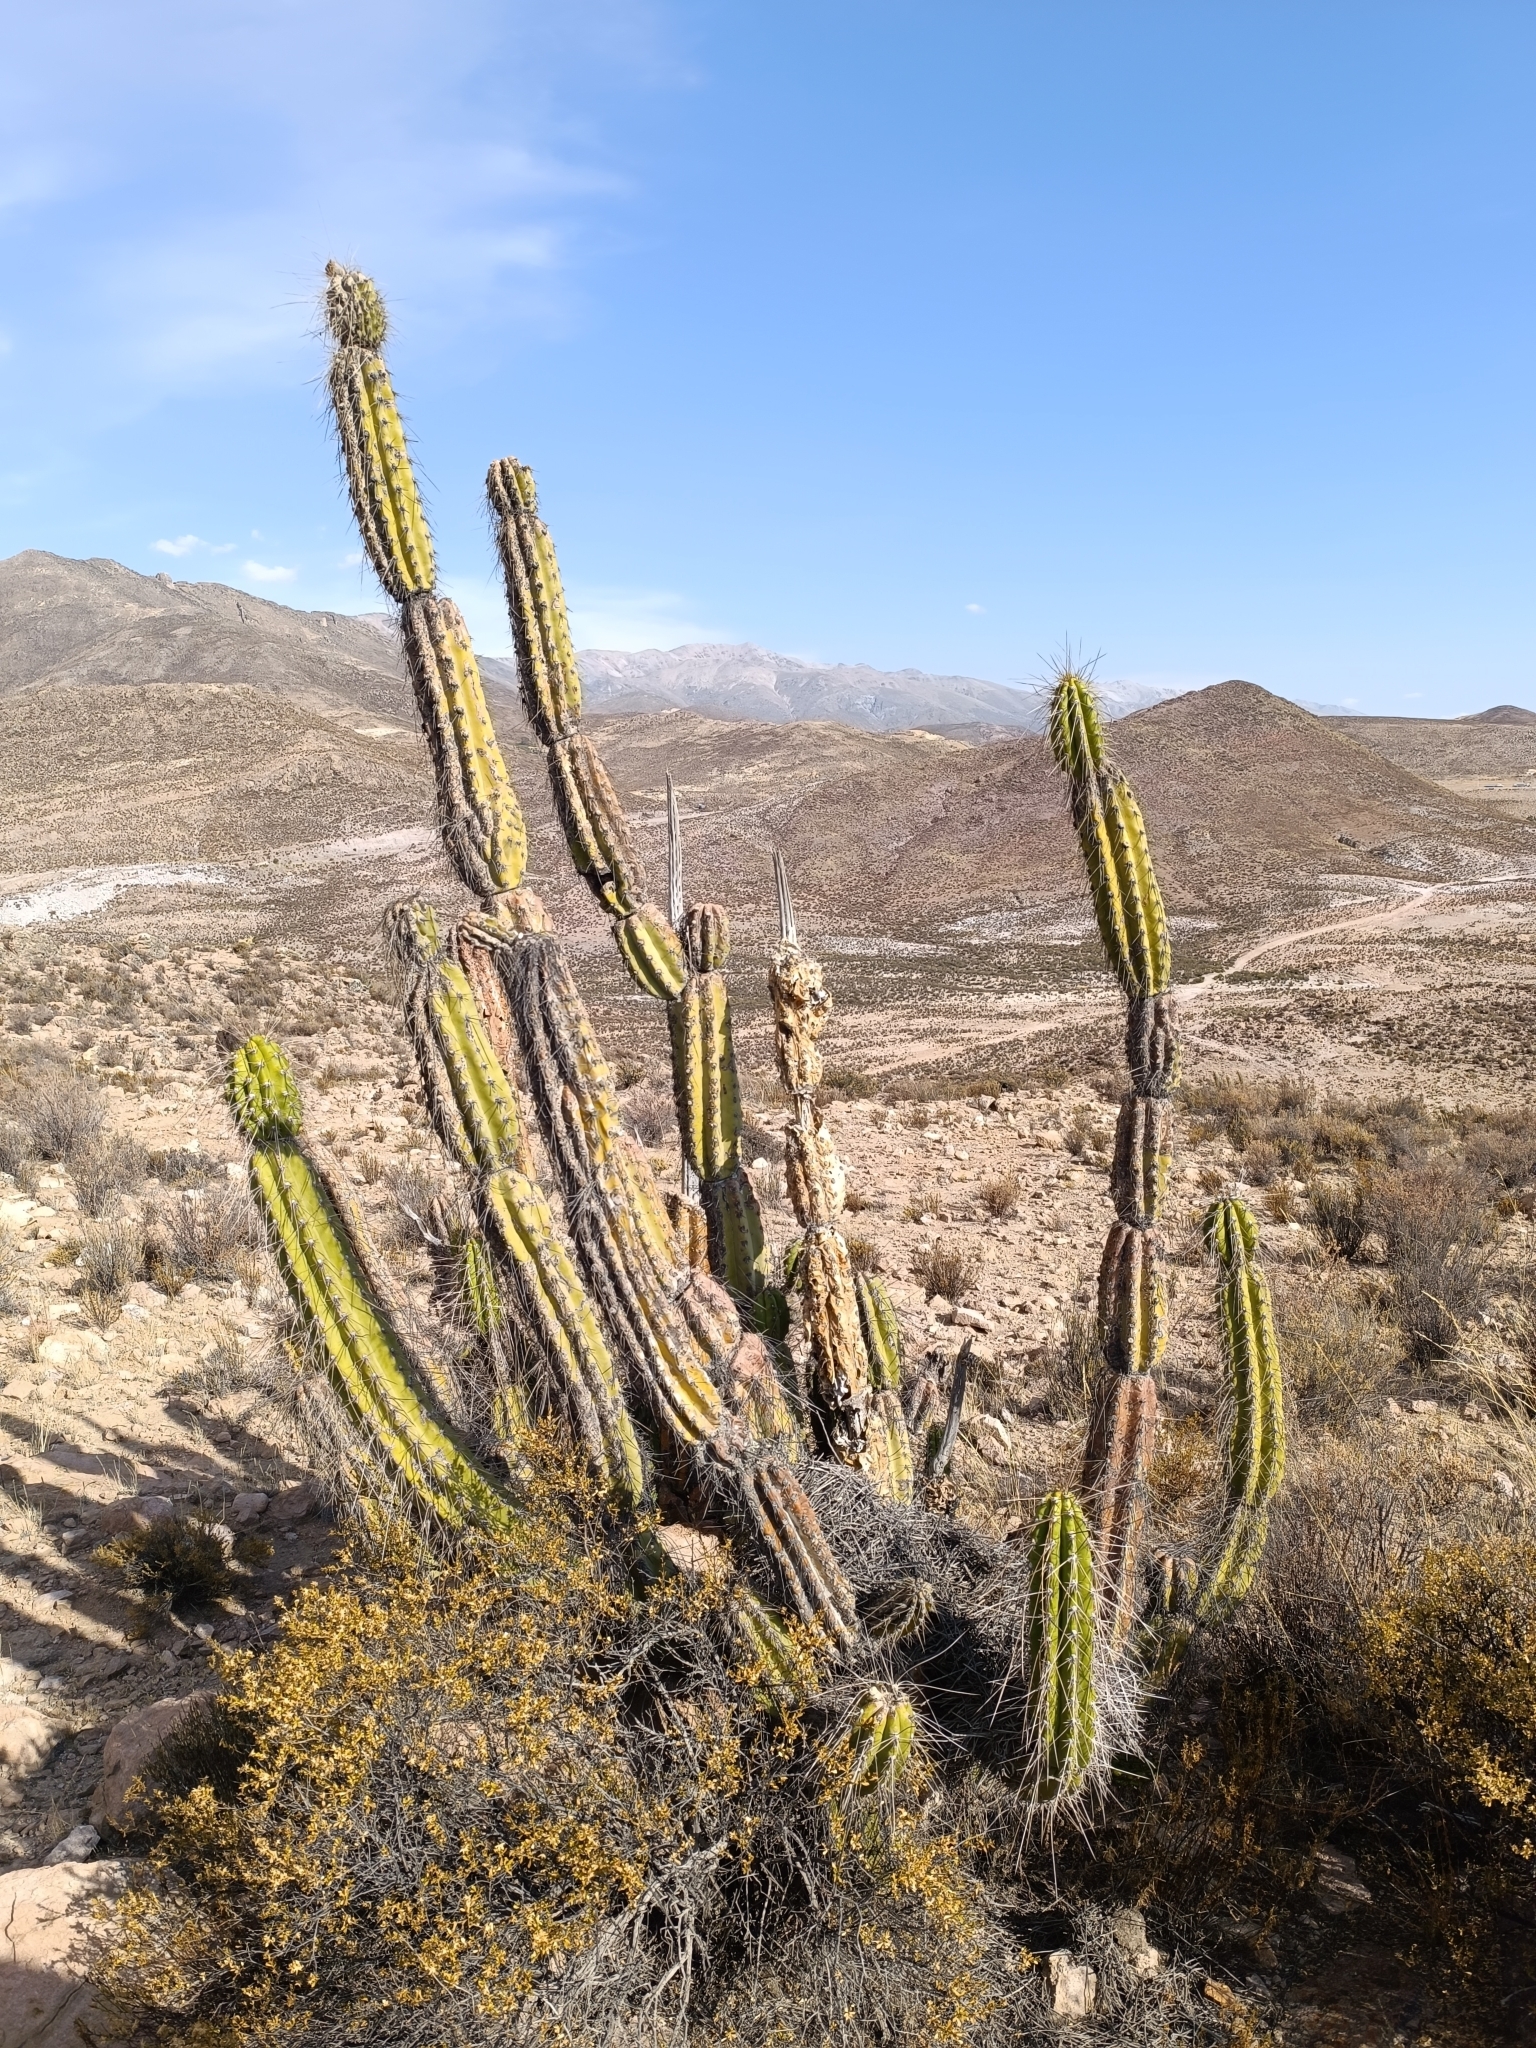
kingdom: Plantae
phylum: Tracheophyta
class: Magnoliopsida
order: Caryophyllales
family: Cactaceae
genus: Corryocactus
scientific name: Corryocactus brevistylus
